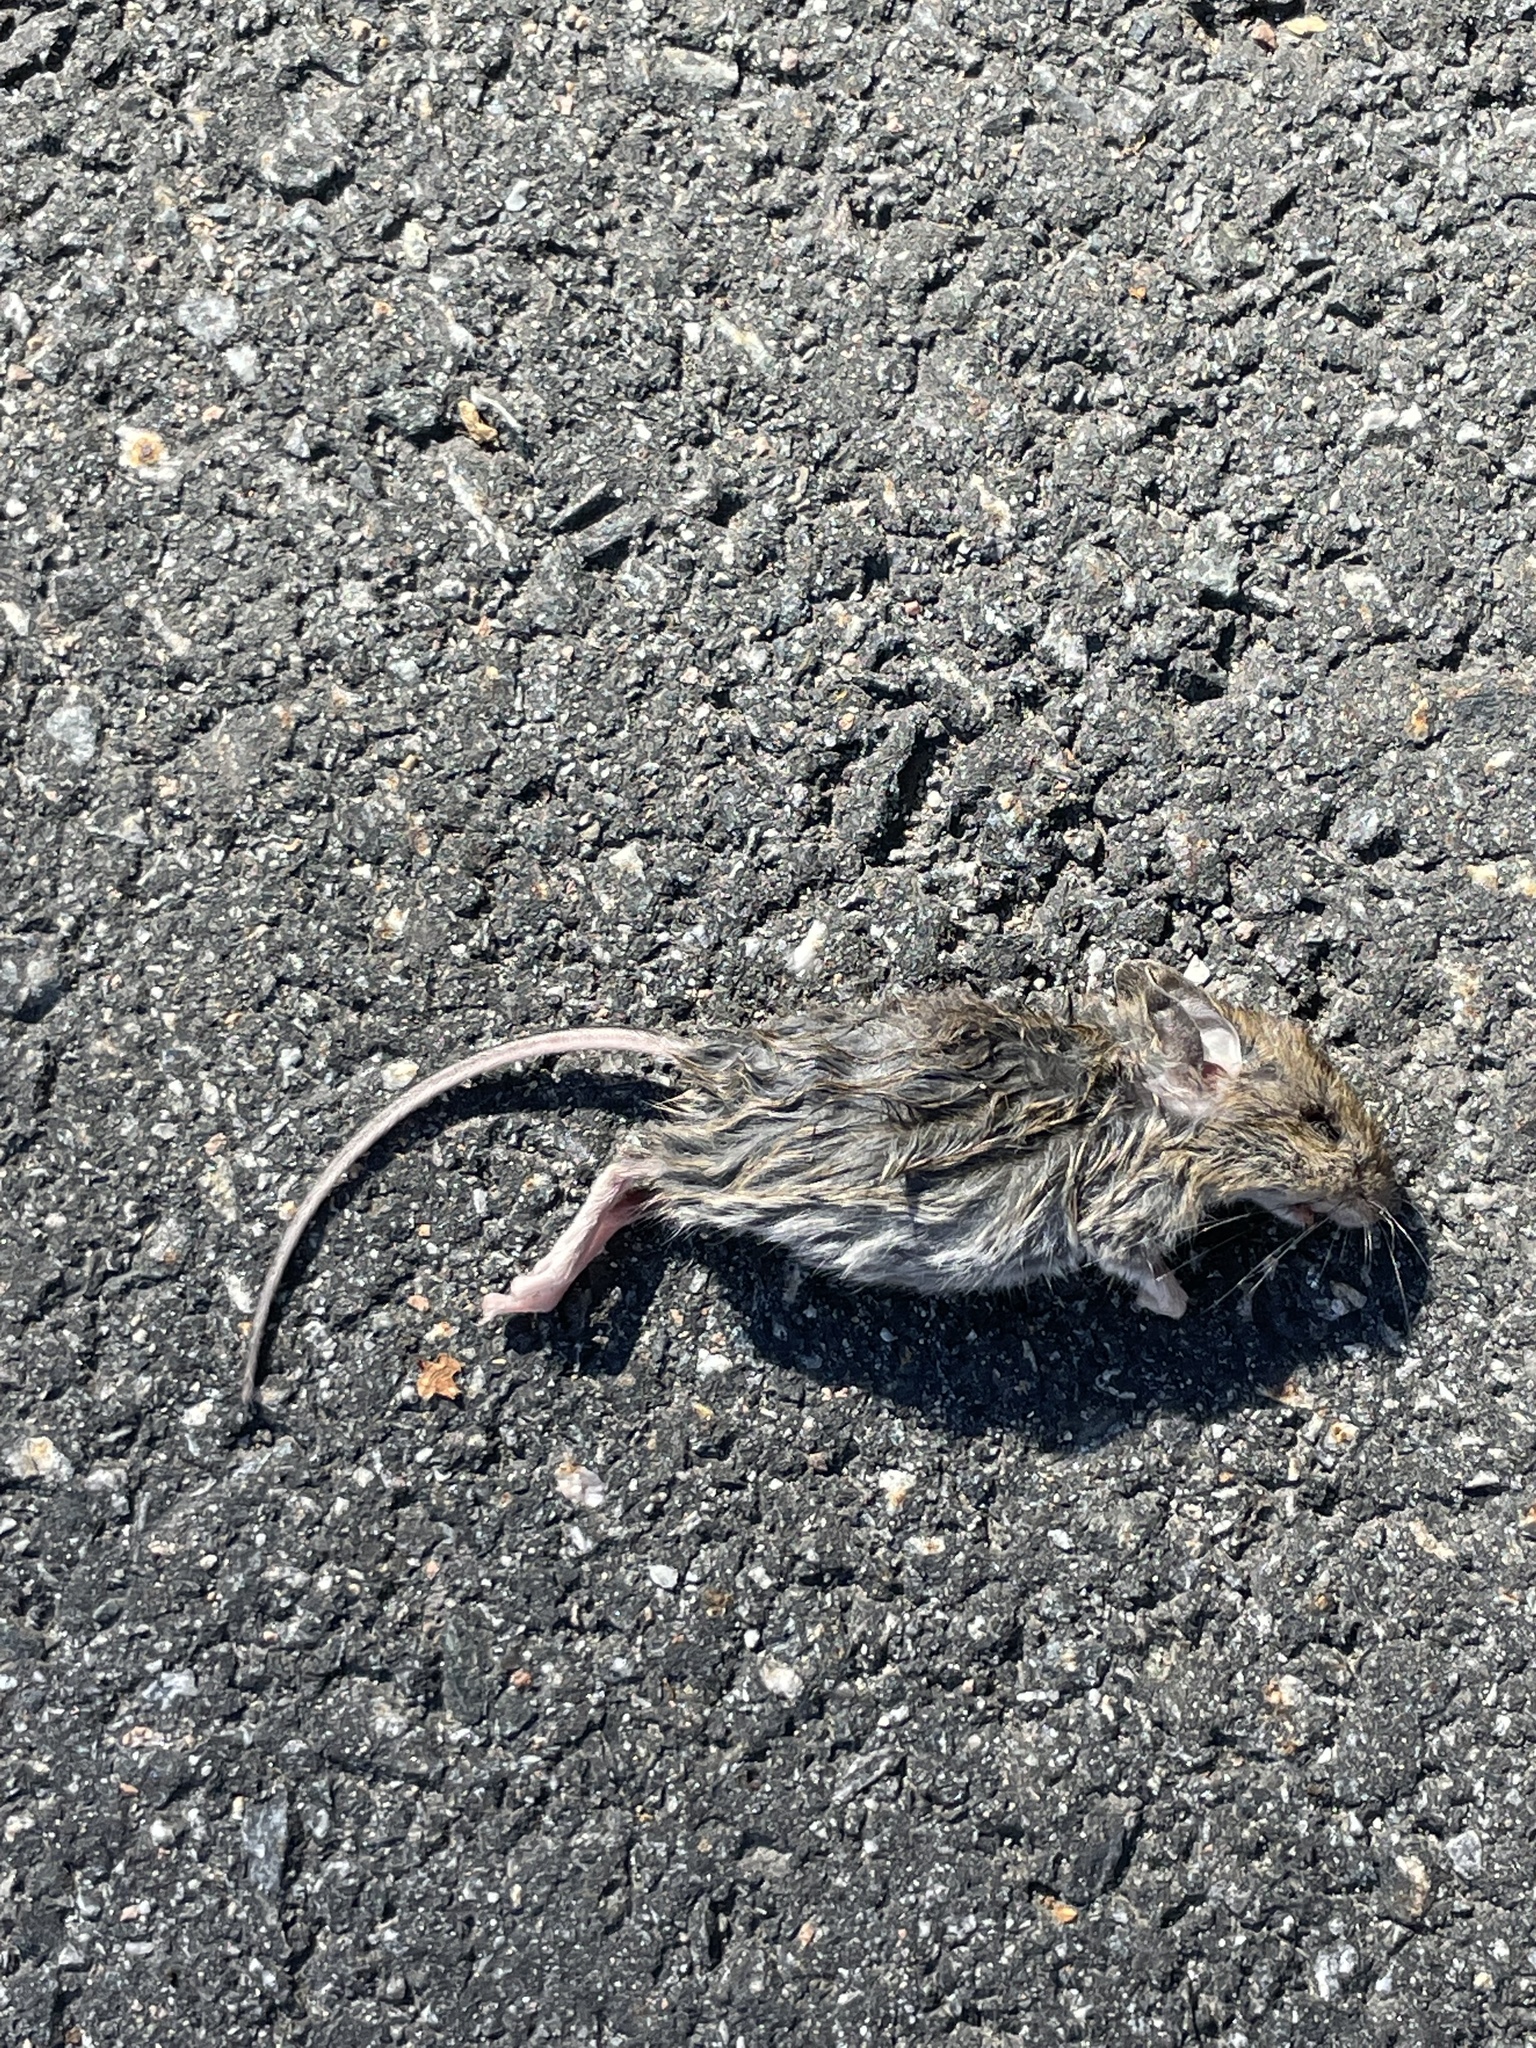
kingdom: Animalia
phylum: Chordata
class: Mammalia
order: Rodentia
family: Muridae
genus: Mus
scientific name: Mus musculus
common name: House mouse
